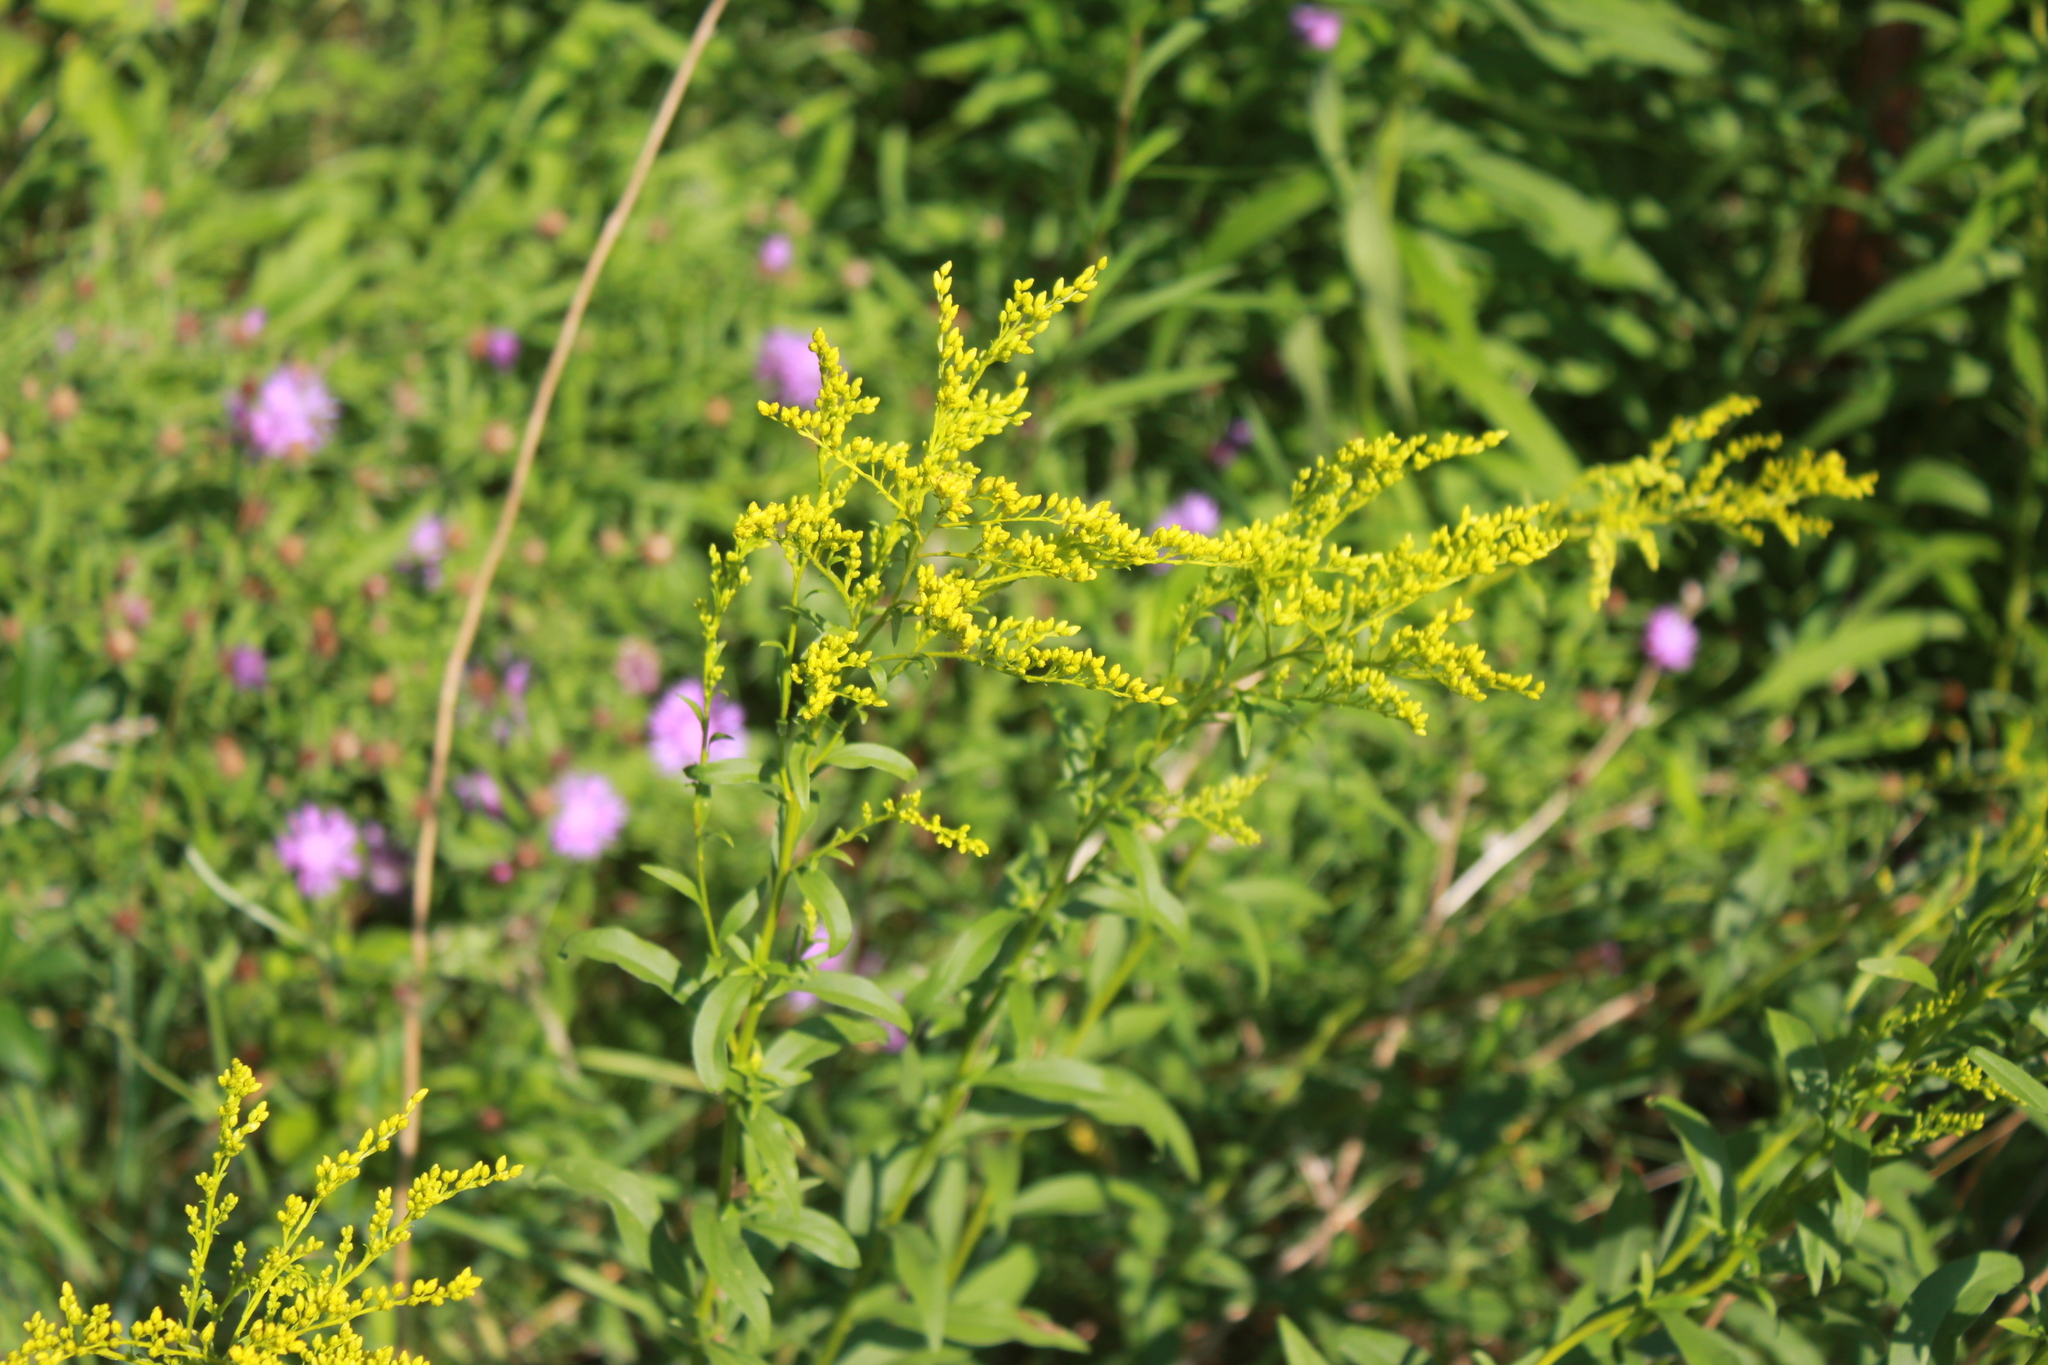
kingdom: Plantae
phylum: Tracheophyta
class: Magnoliopsida
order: Asterales
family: Asteraceae
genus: Solidago
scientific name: Solidago juncea
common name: Early goldenrod
